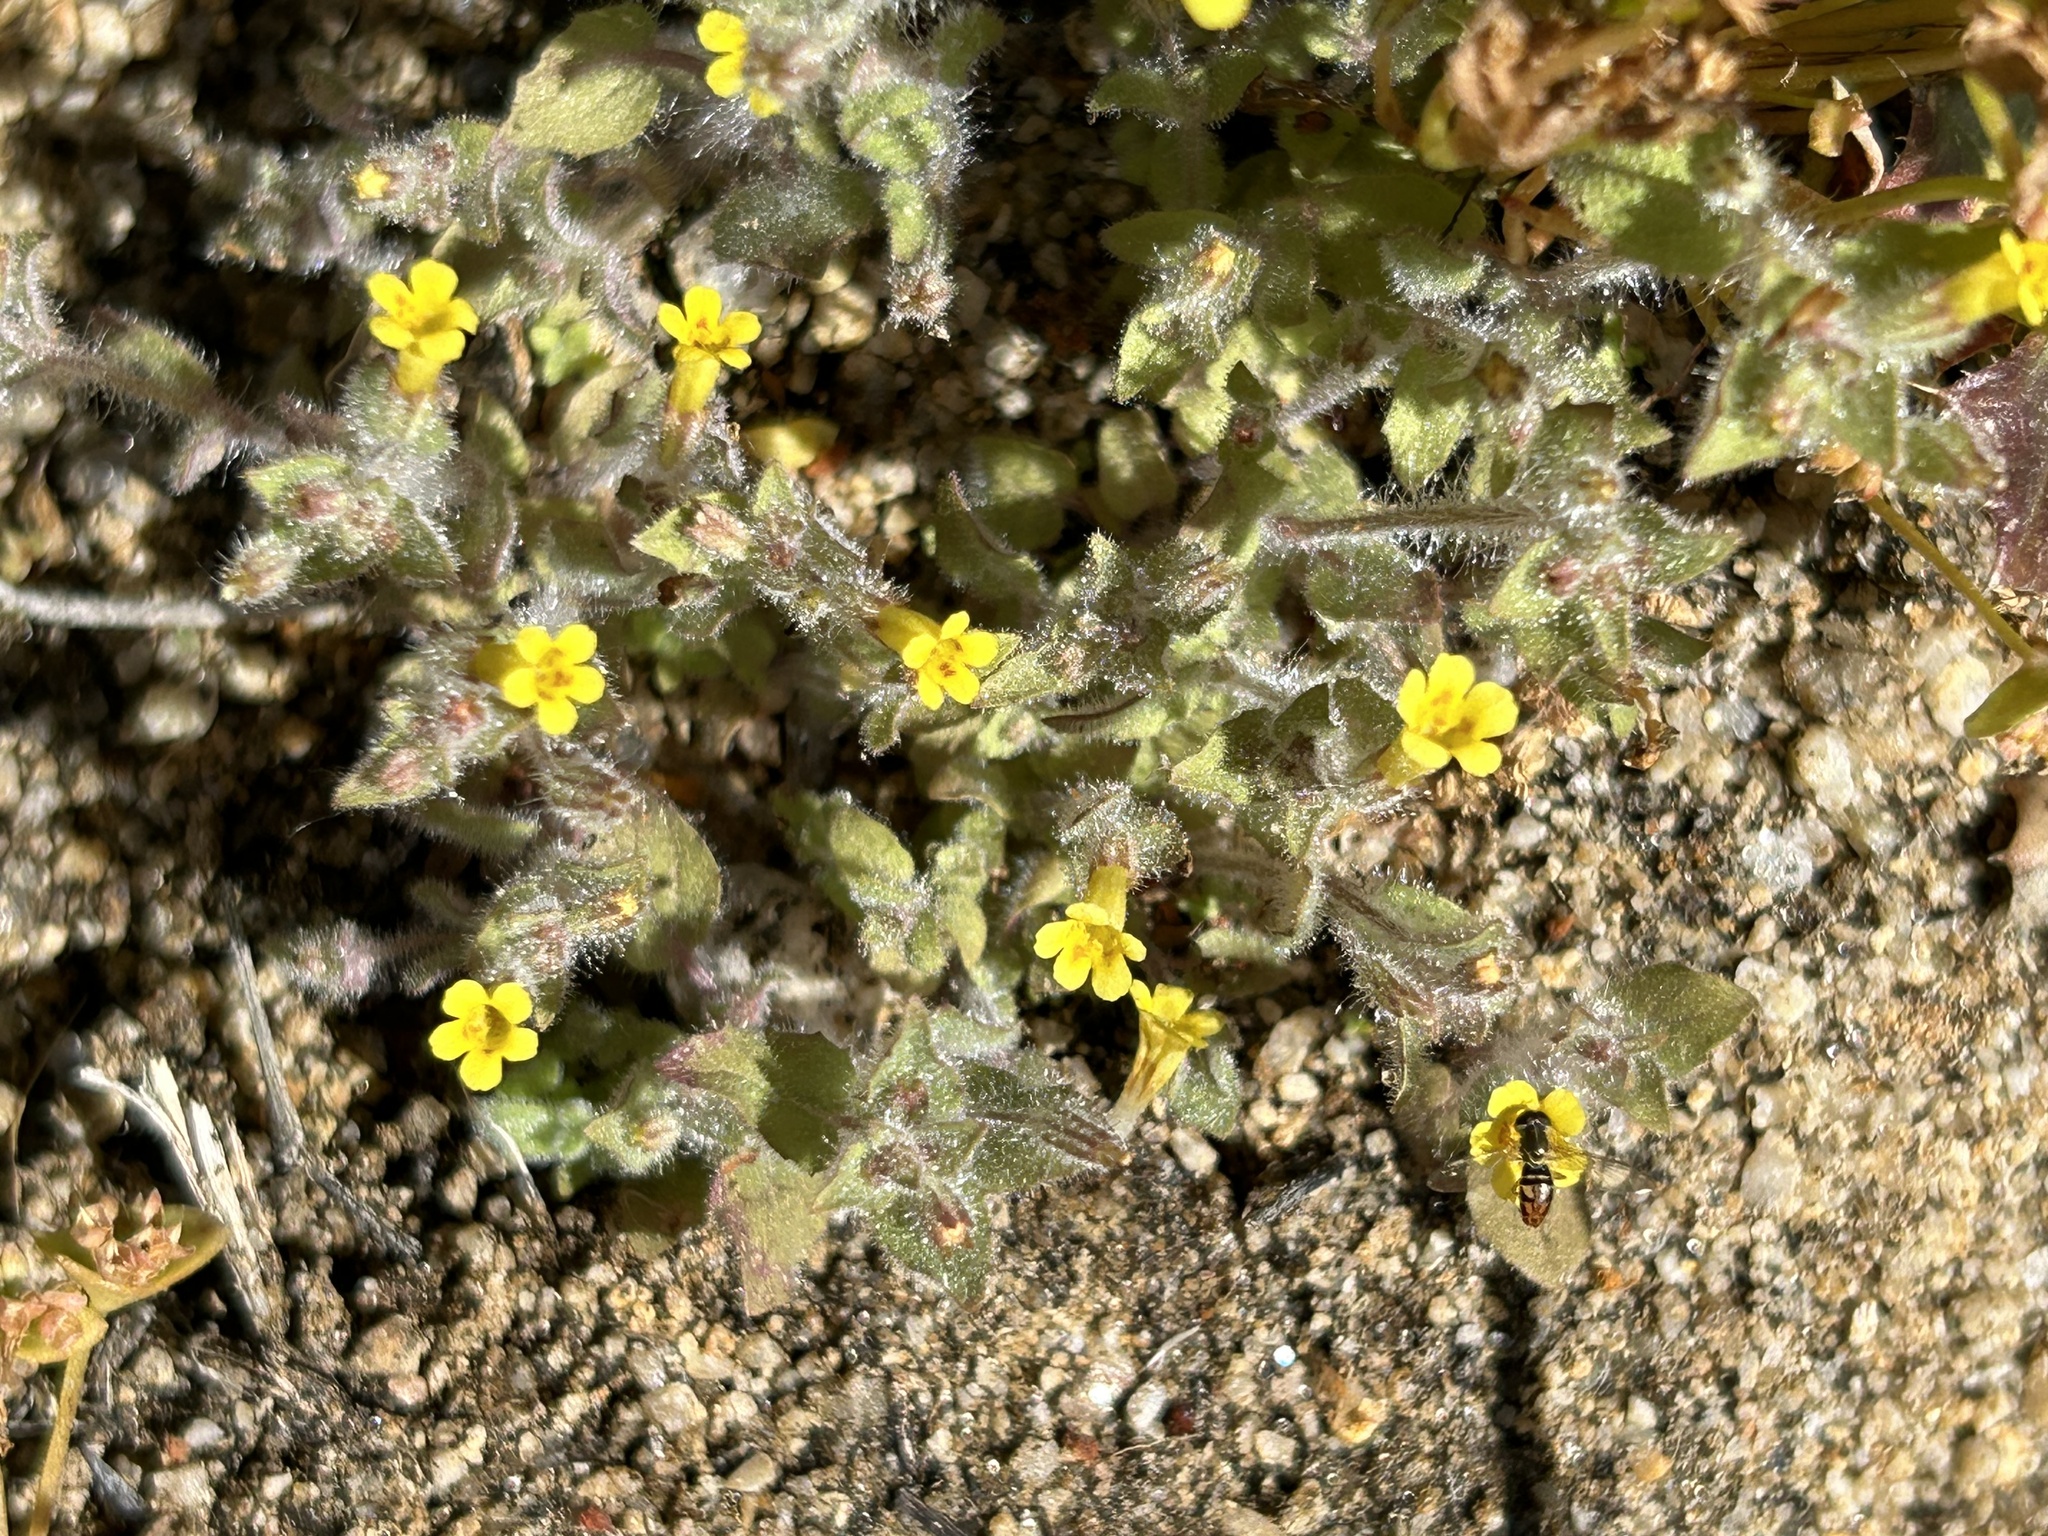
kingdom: Plantae
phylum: Tracheophyta
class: Magnoliopsida
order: Lamiales
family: Phrymaceae
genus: Erythranthe
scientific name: Erythranthe floribunda
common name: Floriferous monkeyflower
